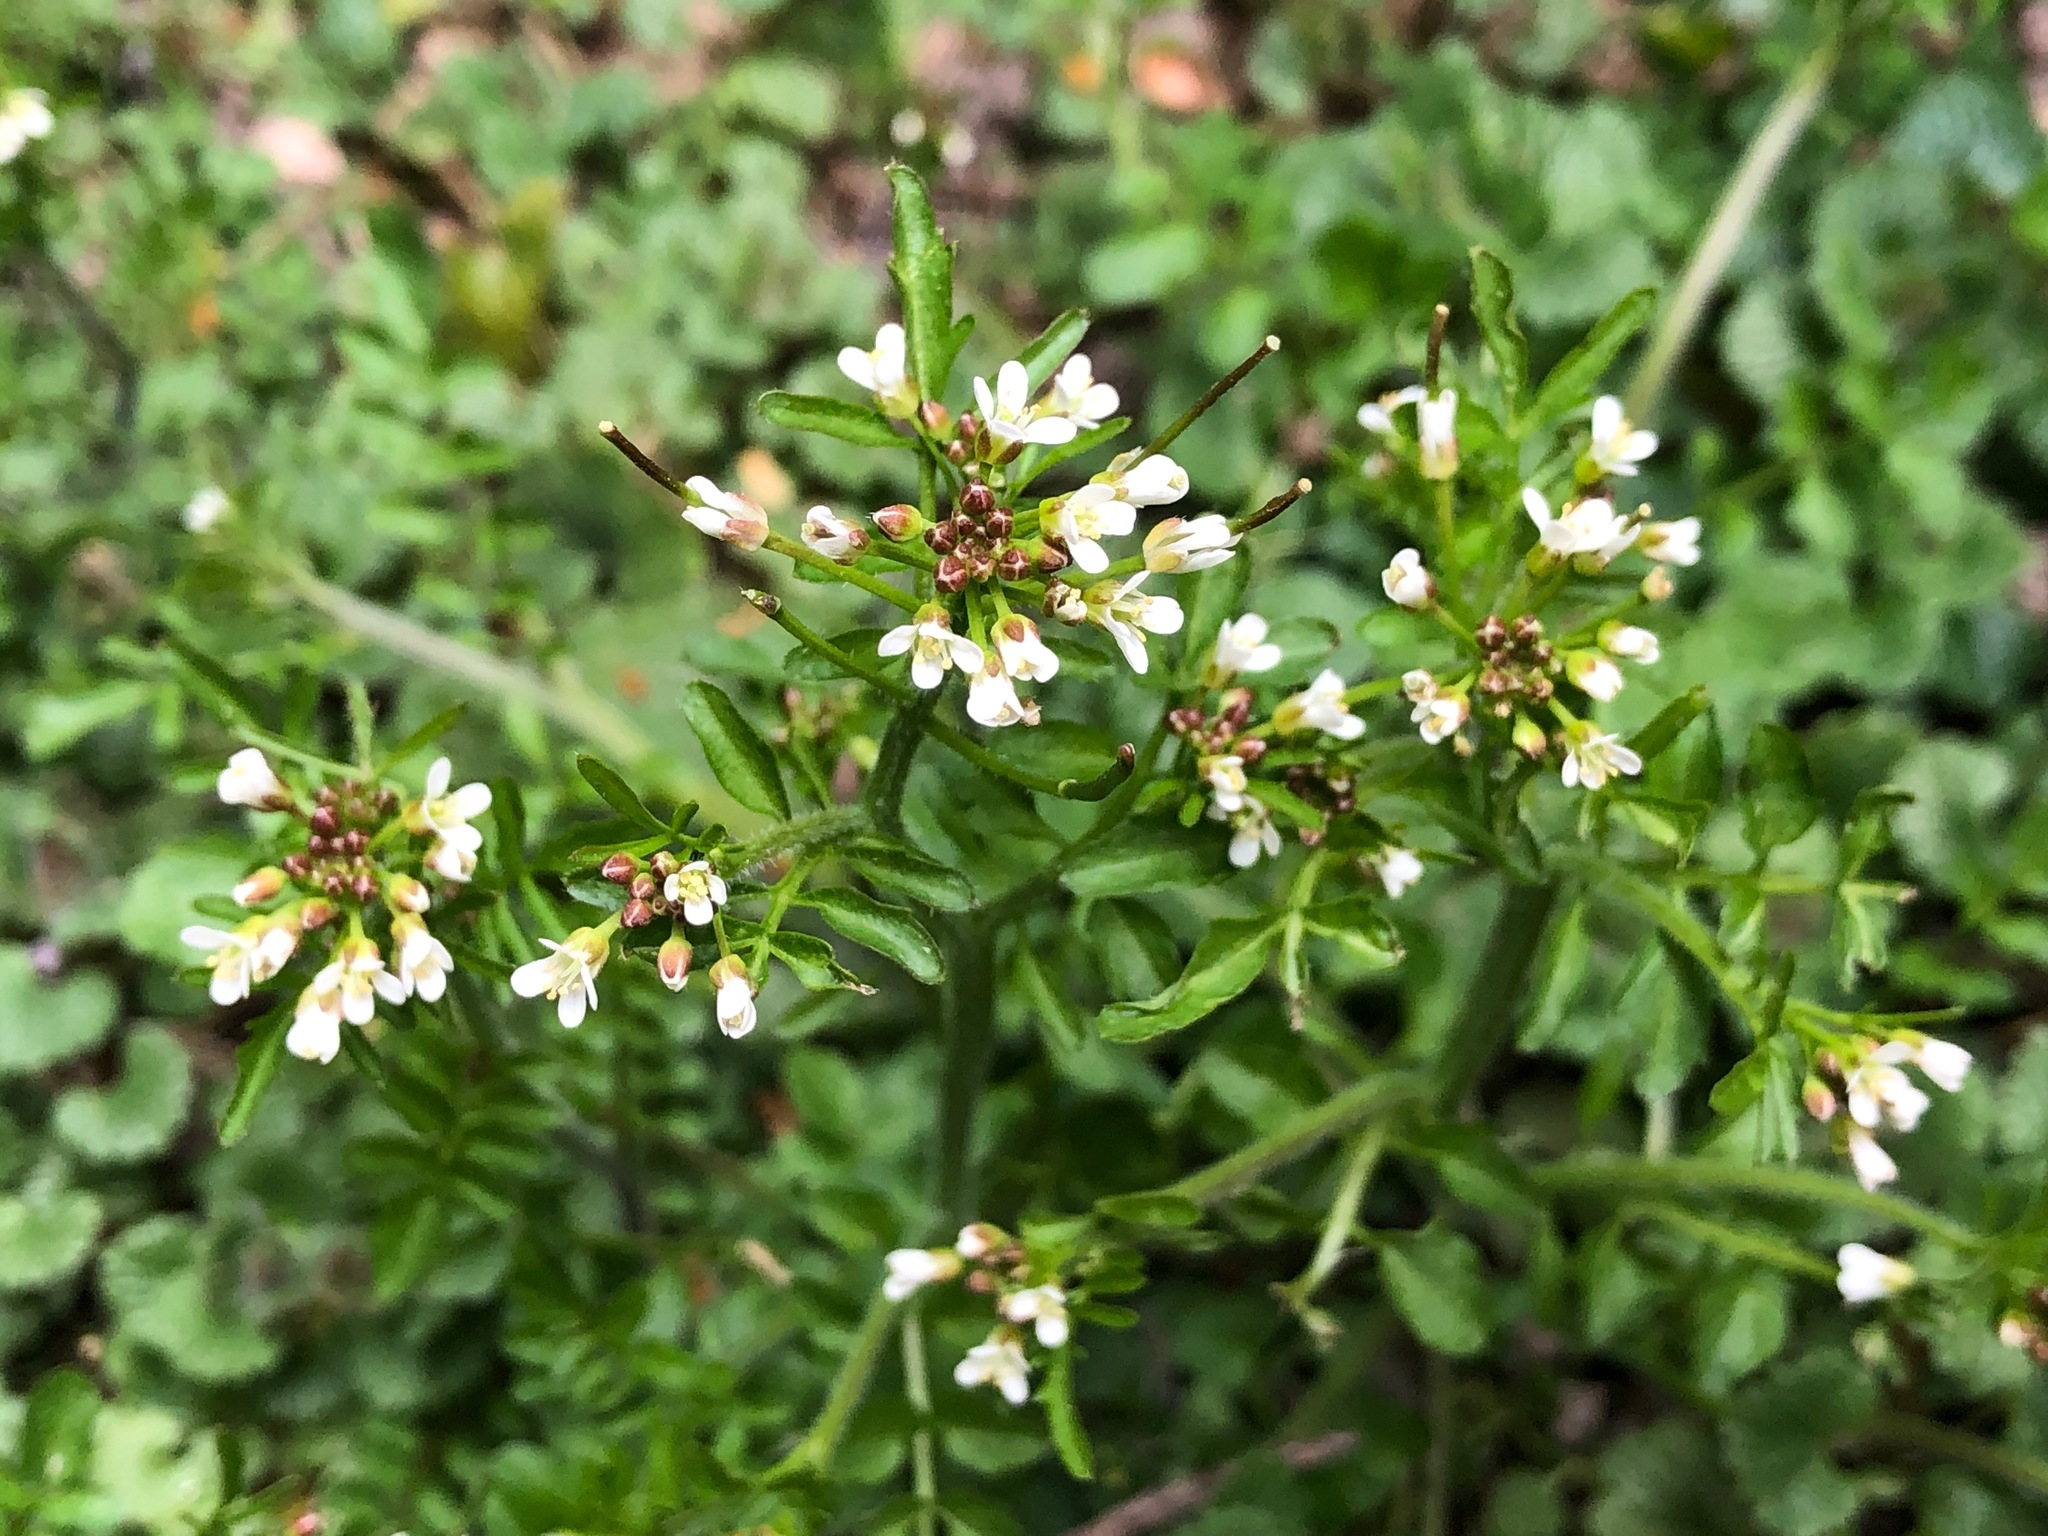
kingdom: Plantae
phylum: Tracheophyta
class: Magnoliopsida
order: Brassicales
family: Brassicaceae
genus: Cardamine
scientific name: Cardamine flexuosa
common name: Woodland bittercress
